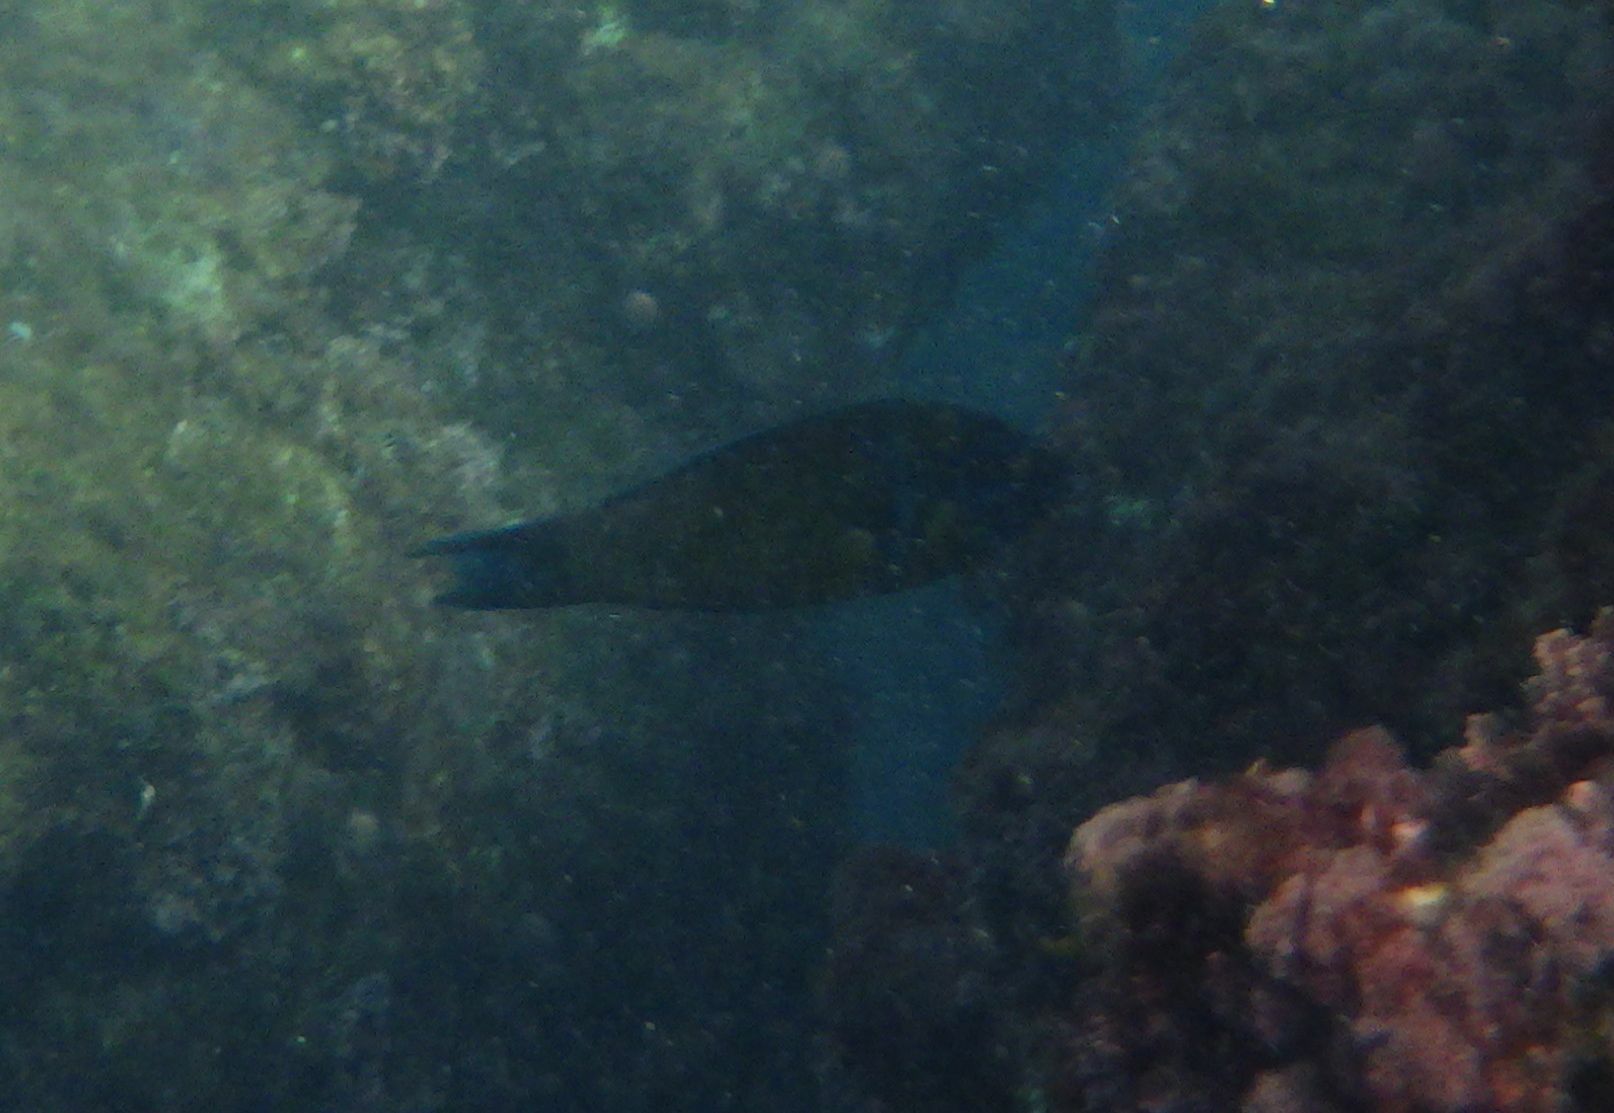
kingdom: Animalia
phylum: Chordata
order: Perciformes
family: Labridae
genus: Thalassoma
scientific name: Thalassoma pavo
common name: Ornate wrasse
